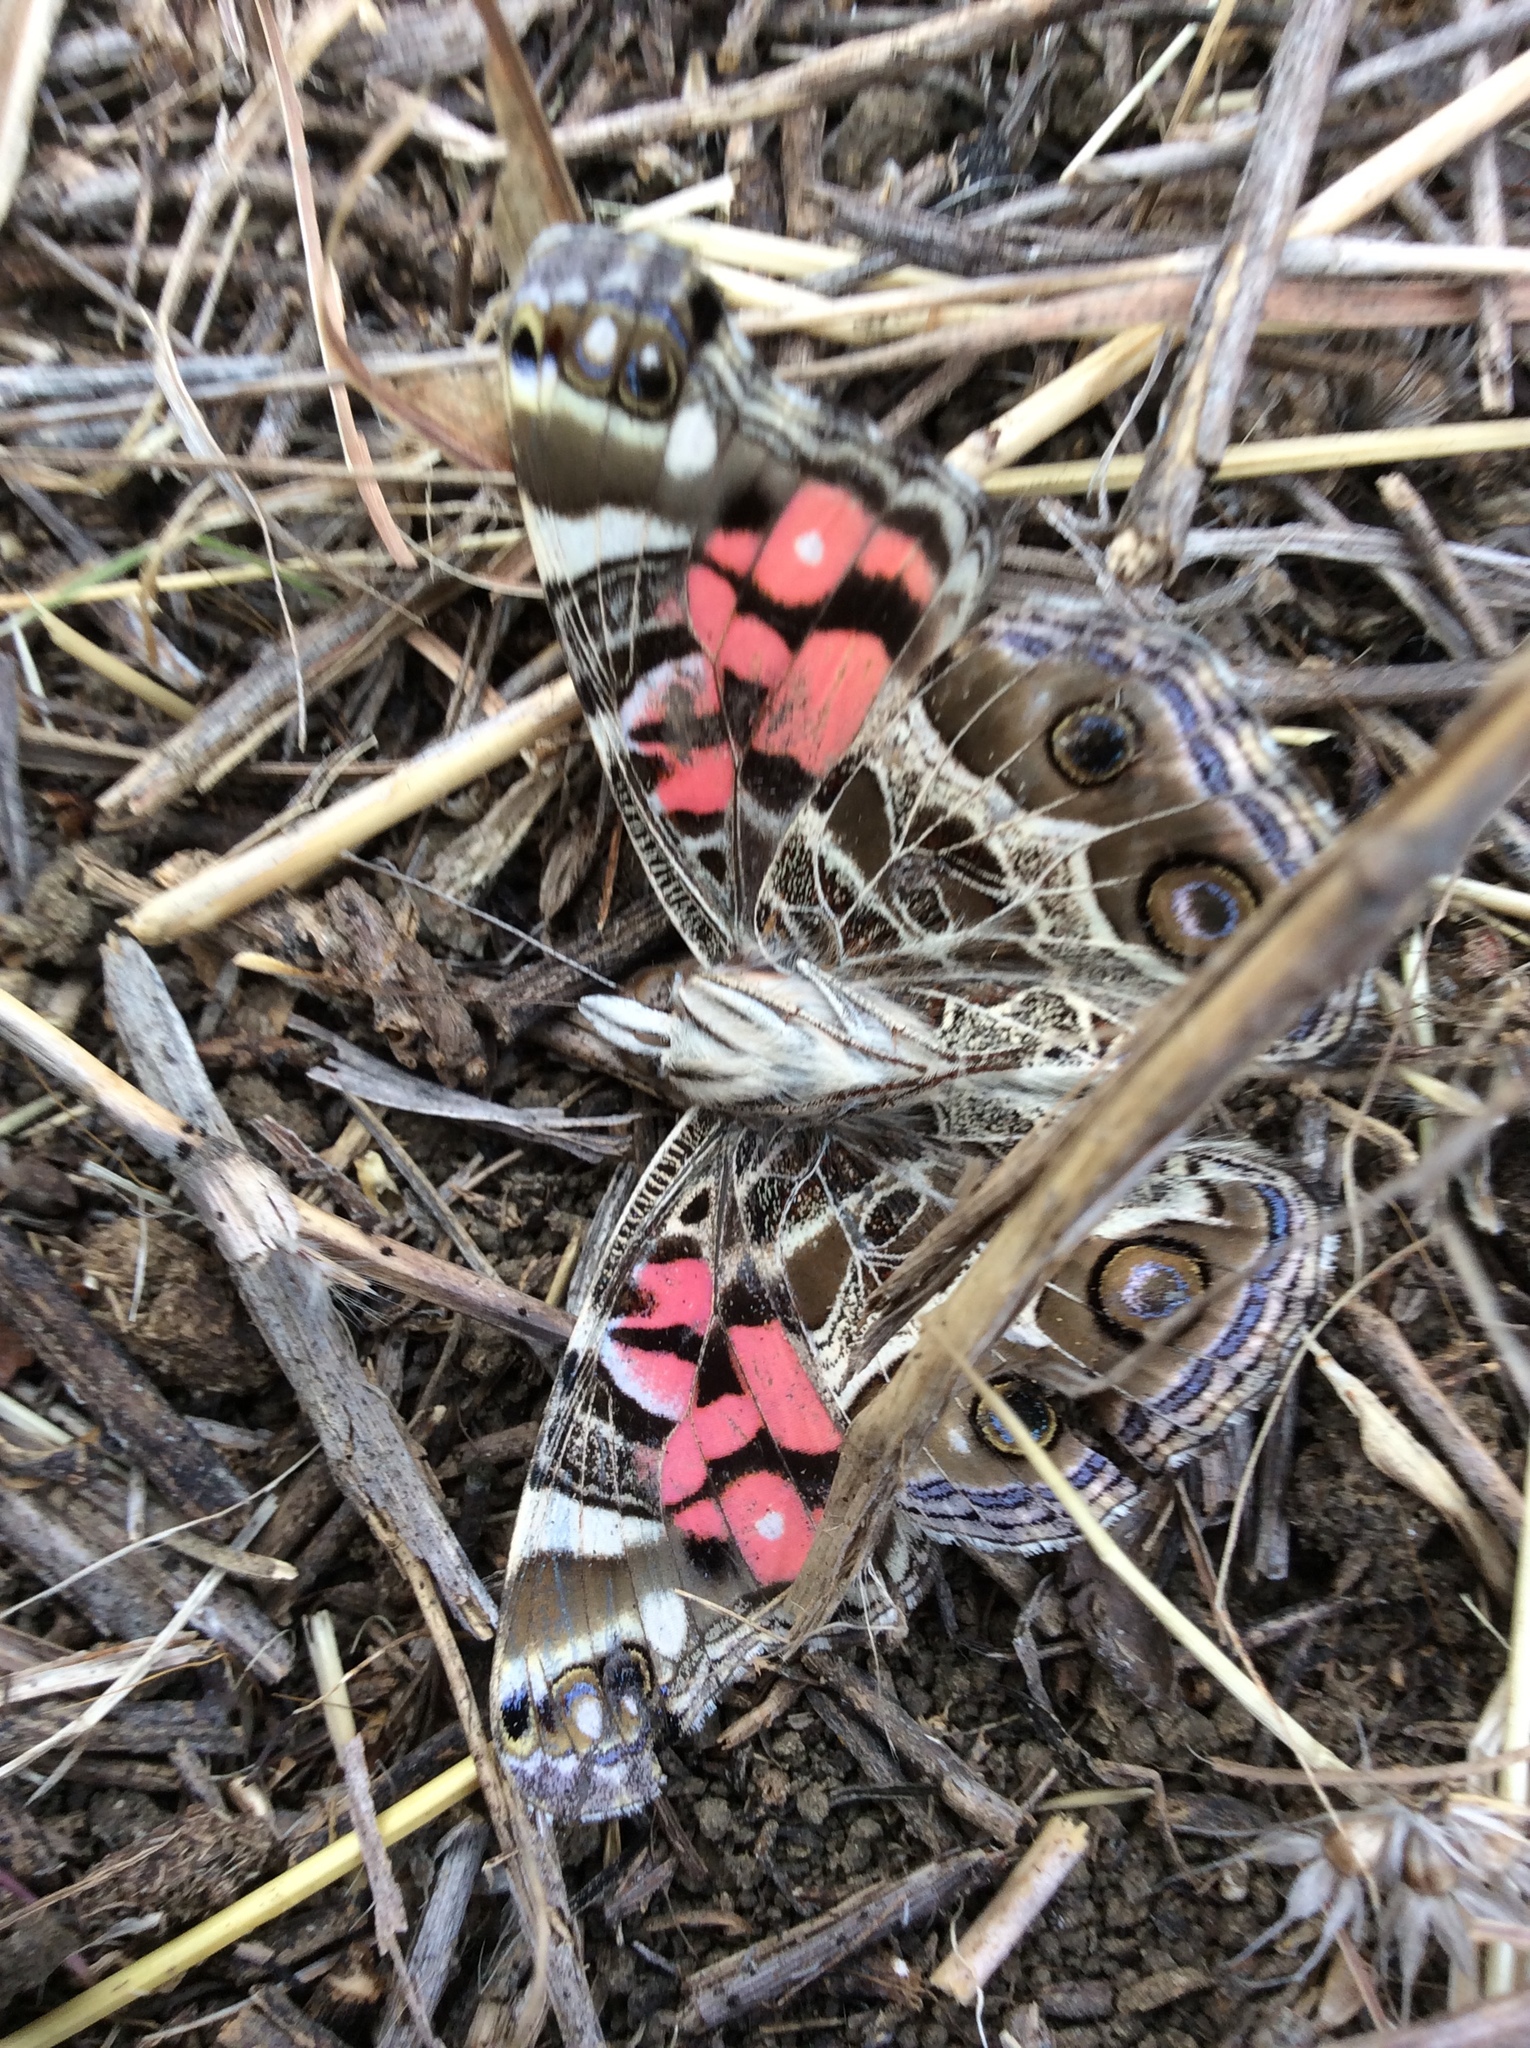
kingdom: Animalia
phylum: Arthropoda
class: Insecta
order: Lepidoptera
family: Nymphalidae
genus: Vanessa
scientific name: Vanessa virginiensis
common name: American lady
